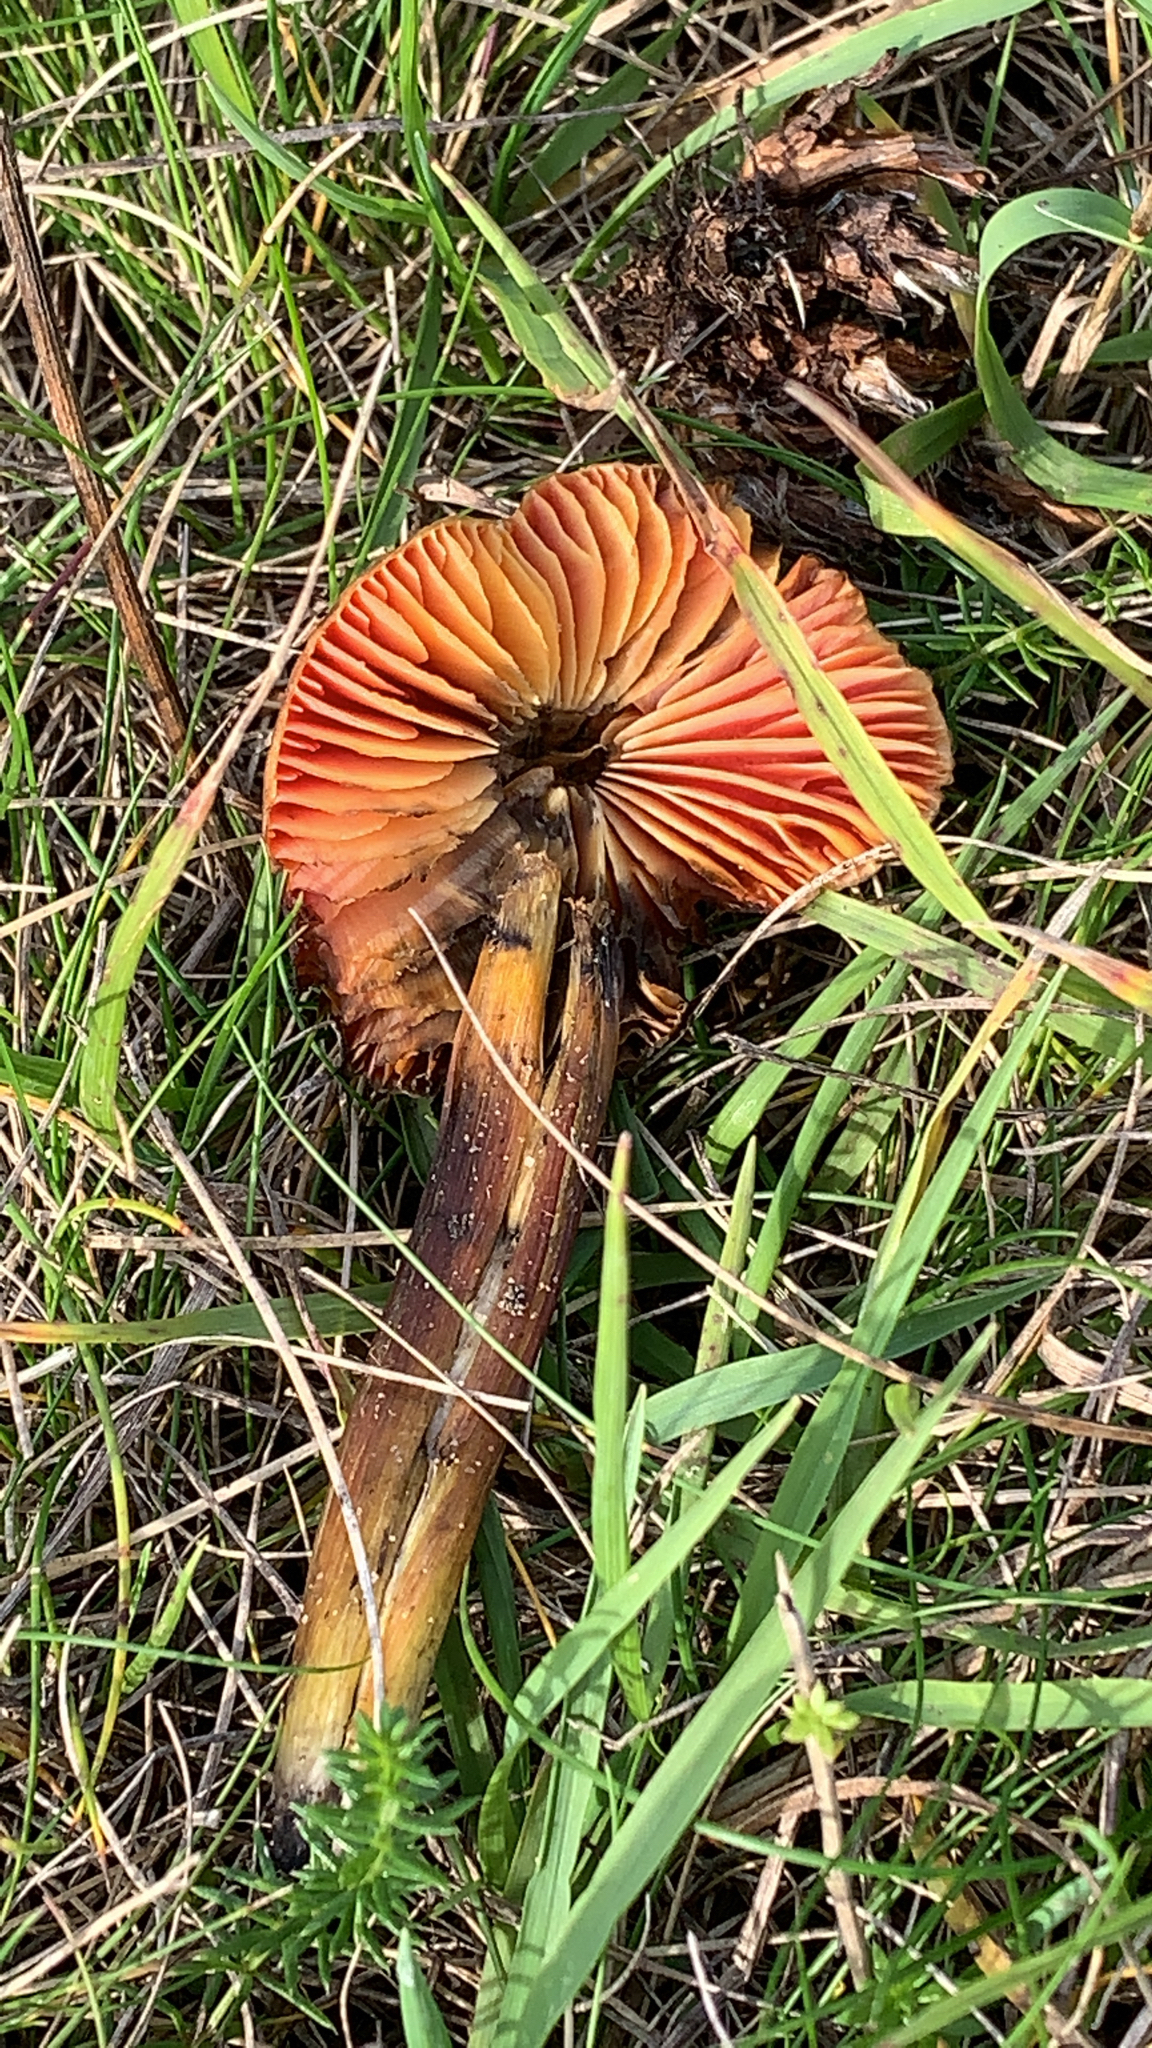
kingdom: Fungi
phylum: Basidiomycota
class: Agaricomycetes
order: Agaricales
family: Hygrophoraceae
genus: Hygrocybe
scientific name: Hygrocybe conica
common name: Blackening wax-cap
